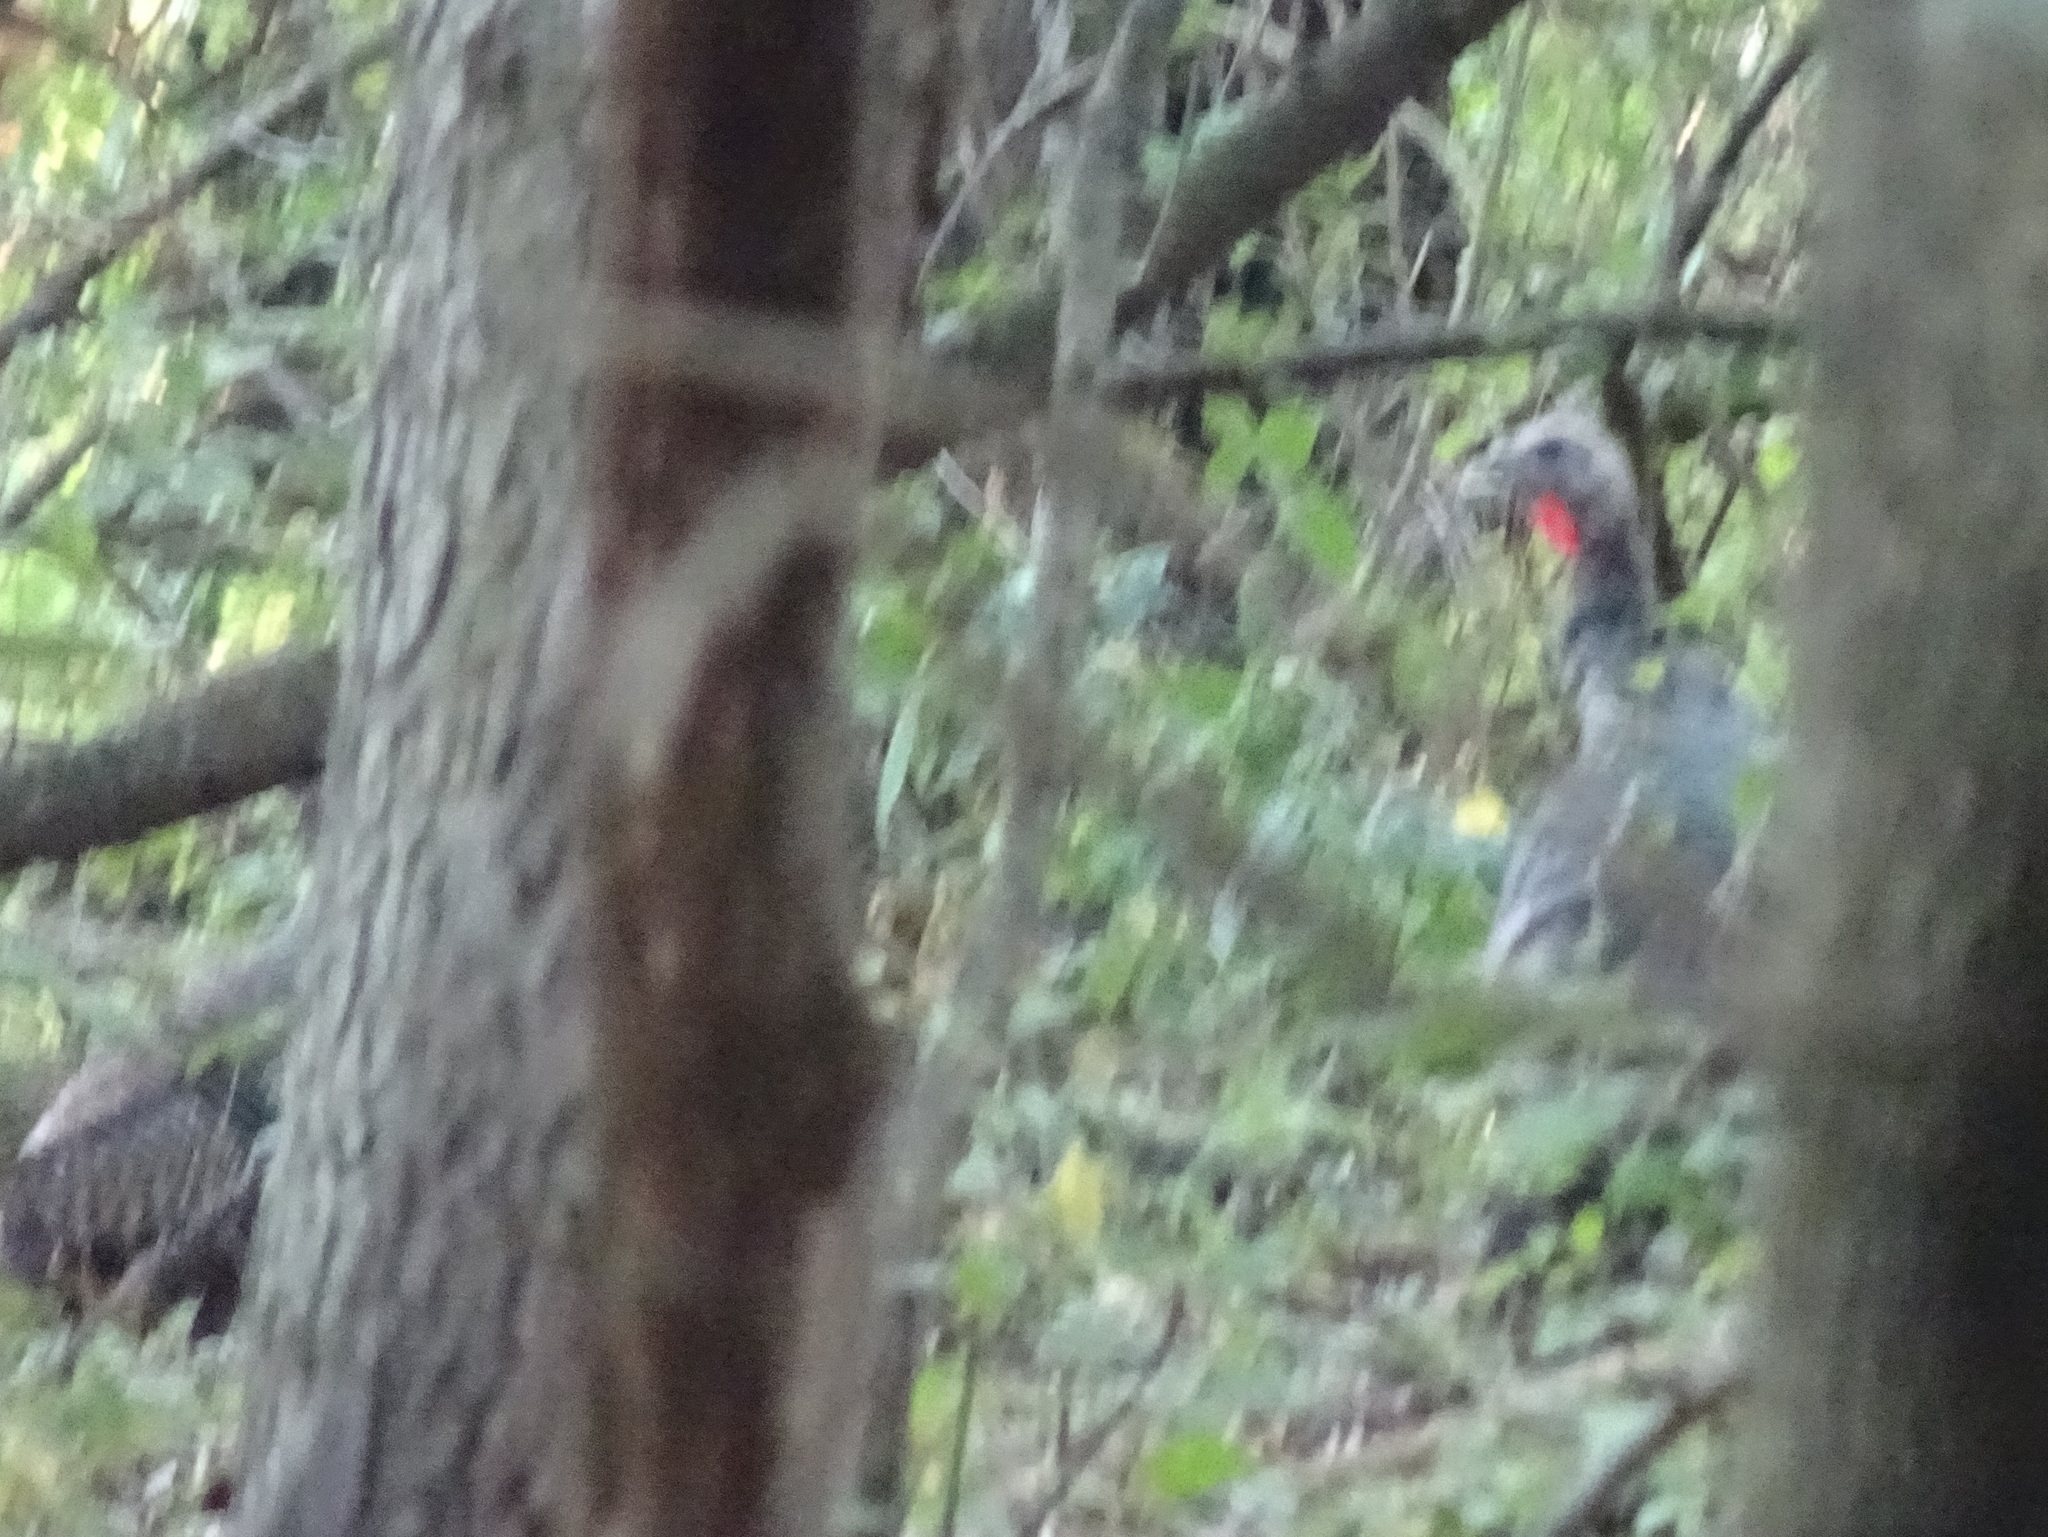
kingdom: Animalia
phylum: Chordata
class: Aves
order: Galliformes
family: Phasianidae
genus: Meleagris
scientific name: Meleagris gallopavo
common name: Wild turkey
